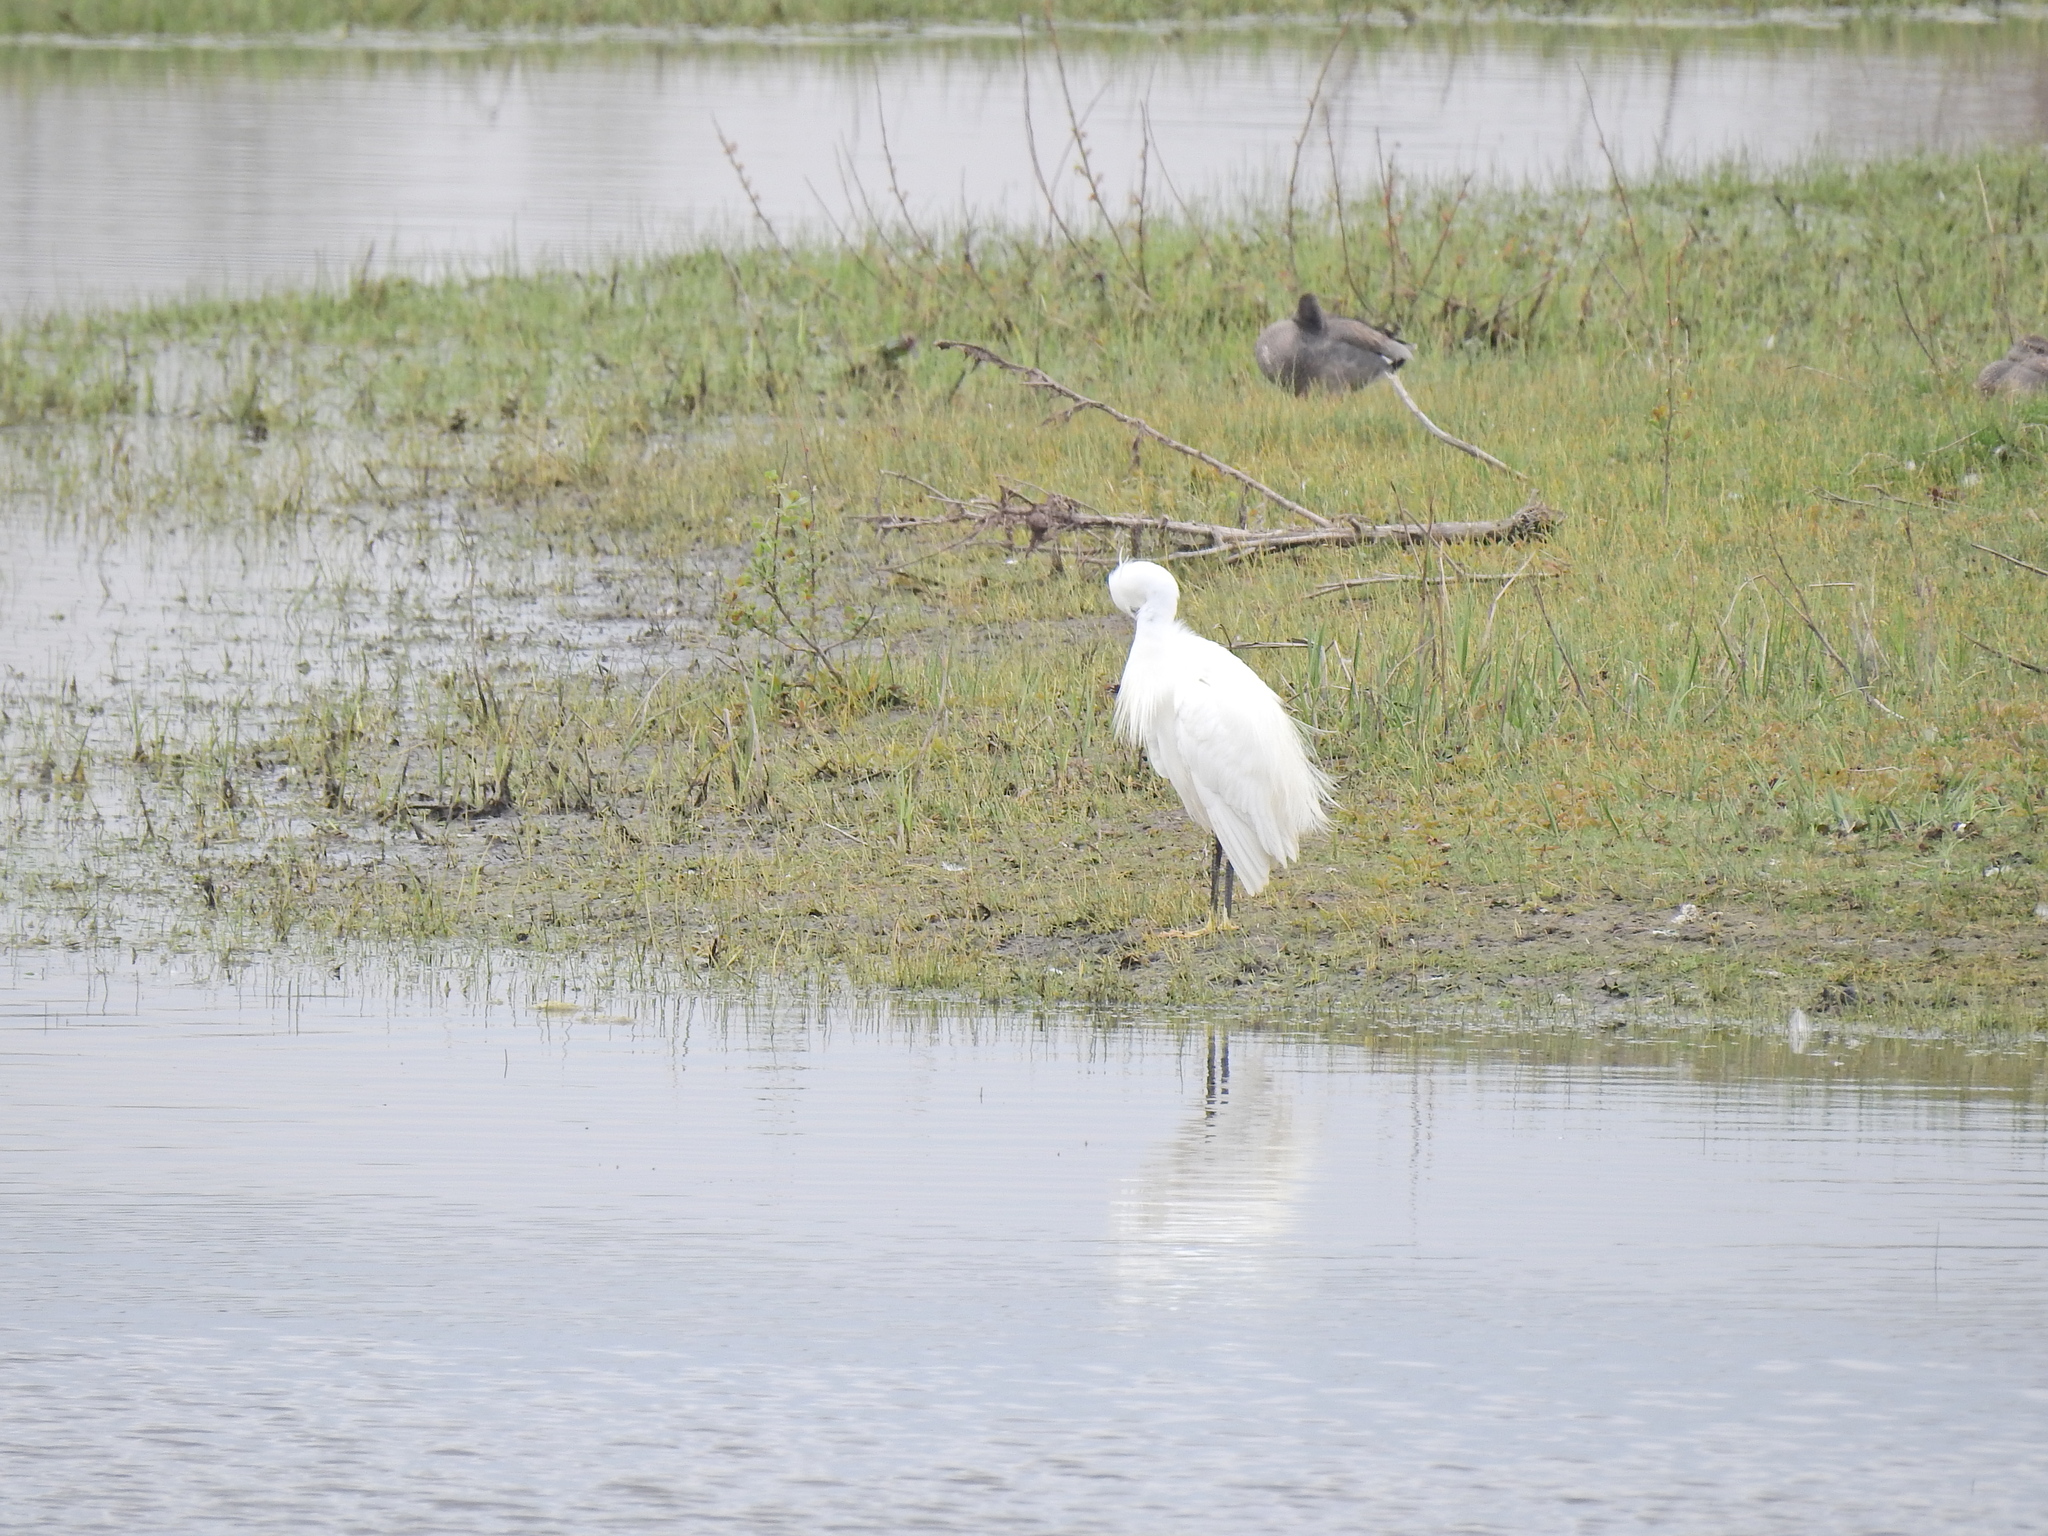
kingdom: Animalia
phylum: Chordata
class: Aves
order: Pelecaniformes
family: Ardeidae
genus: Egretta
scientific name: Egretta garzetta
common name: Little egret
